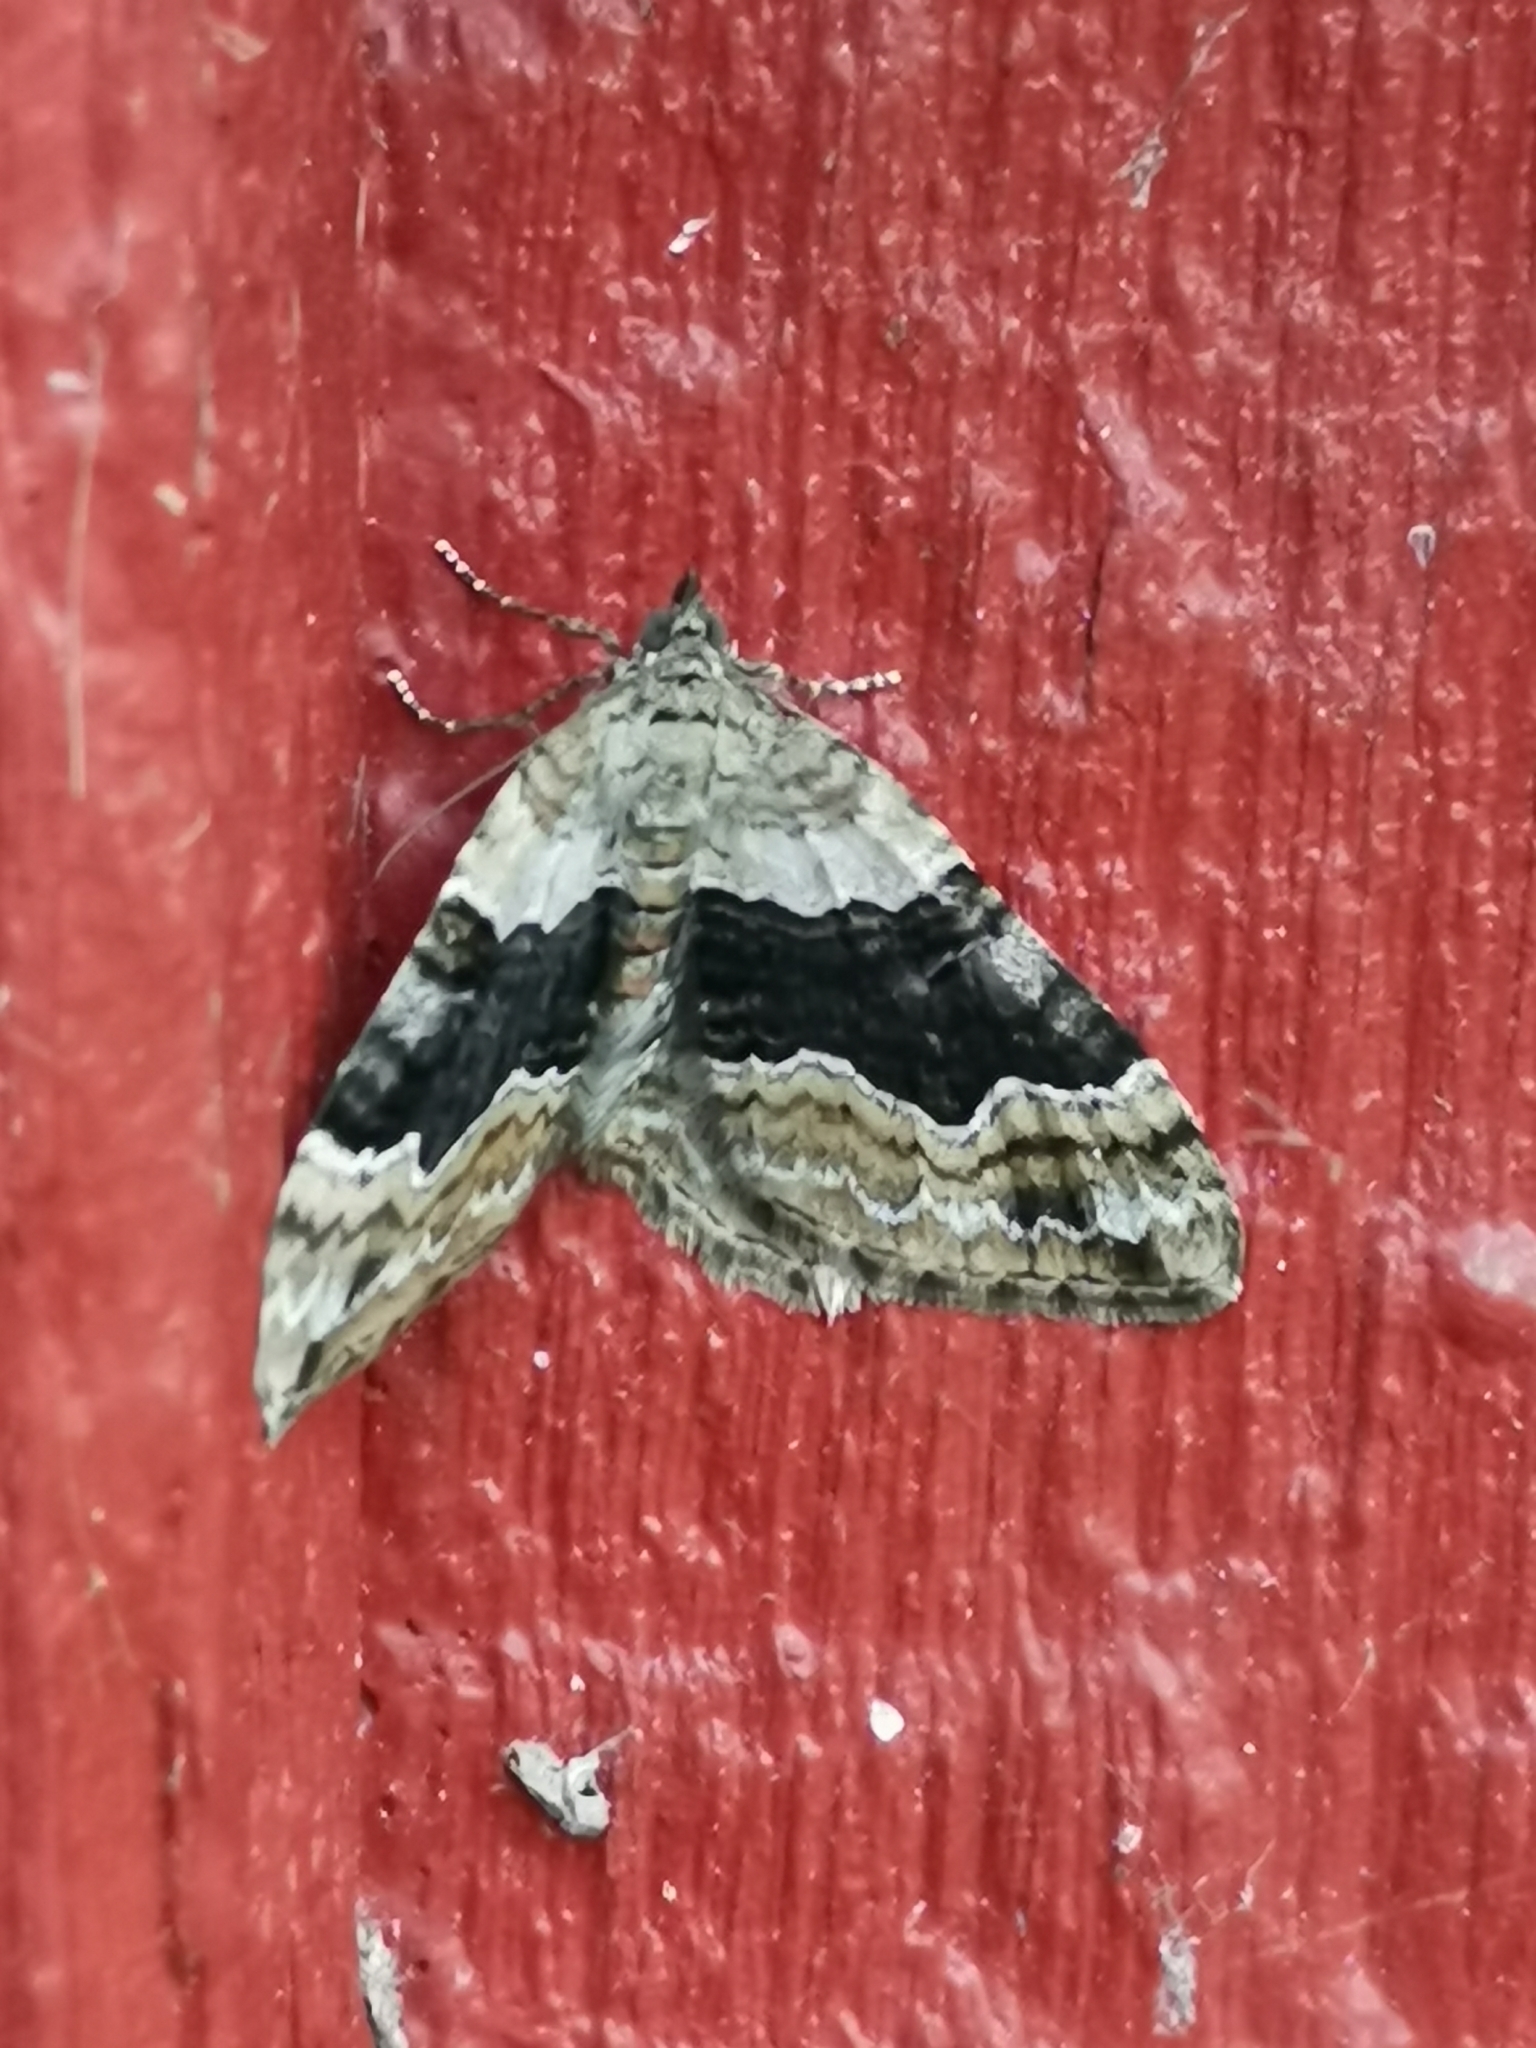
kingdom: Animalia
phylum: Arthropoda
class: Insecta
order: Lepidoptera
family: Geometridae
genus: Xanthorhoe
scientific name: Xanthorhoe quadrifasiata
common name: Large twin-spot carpet
